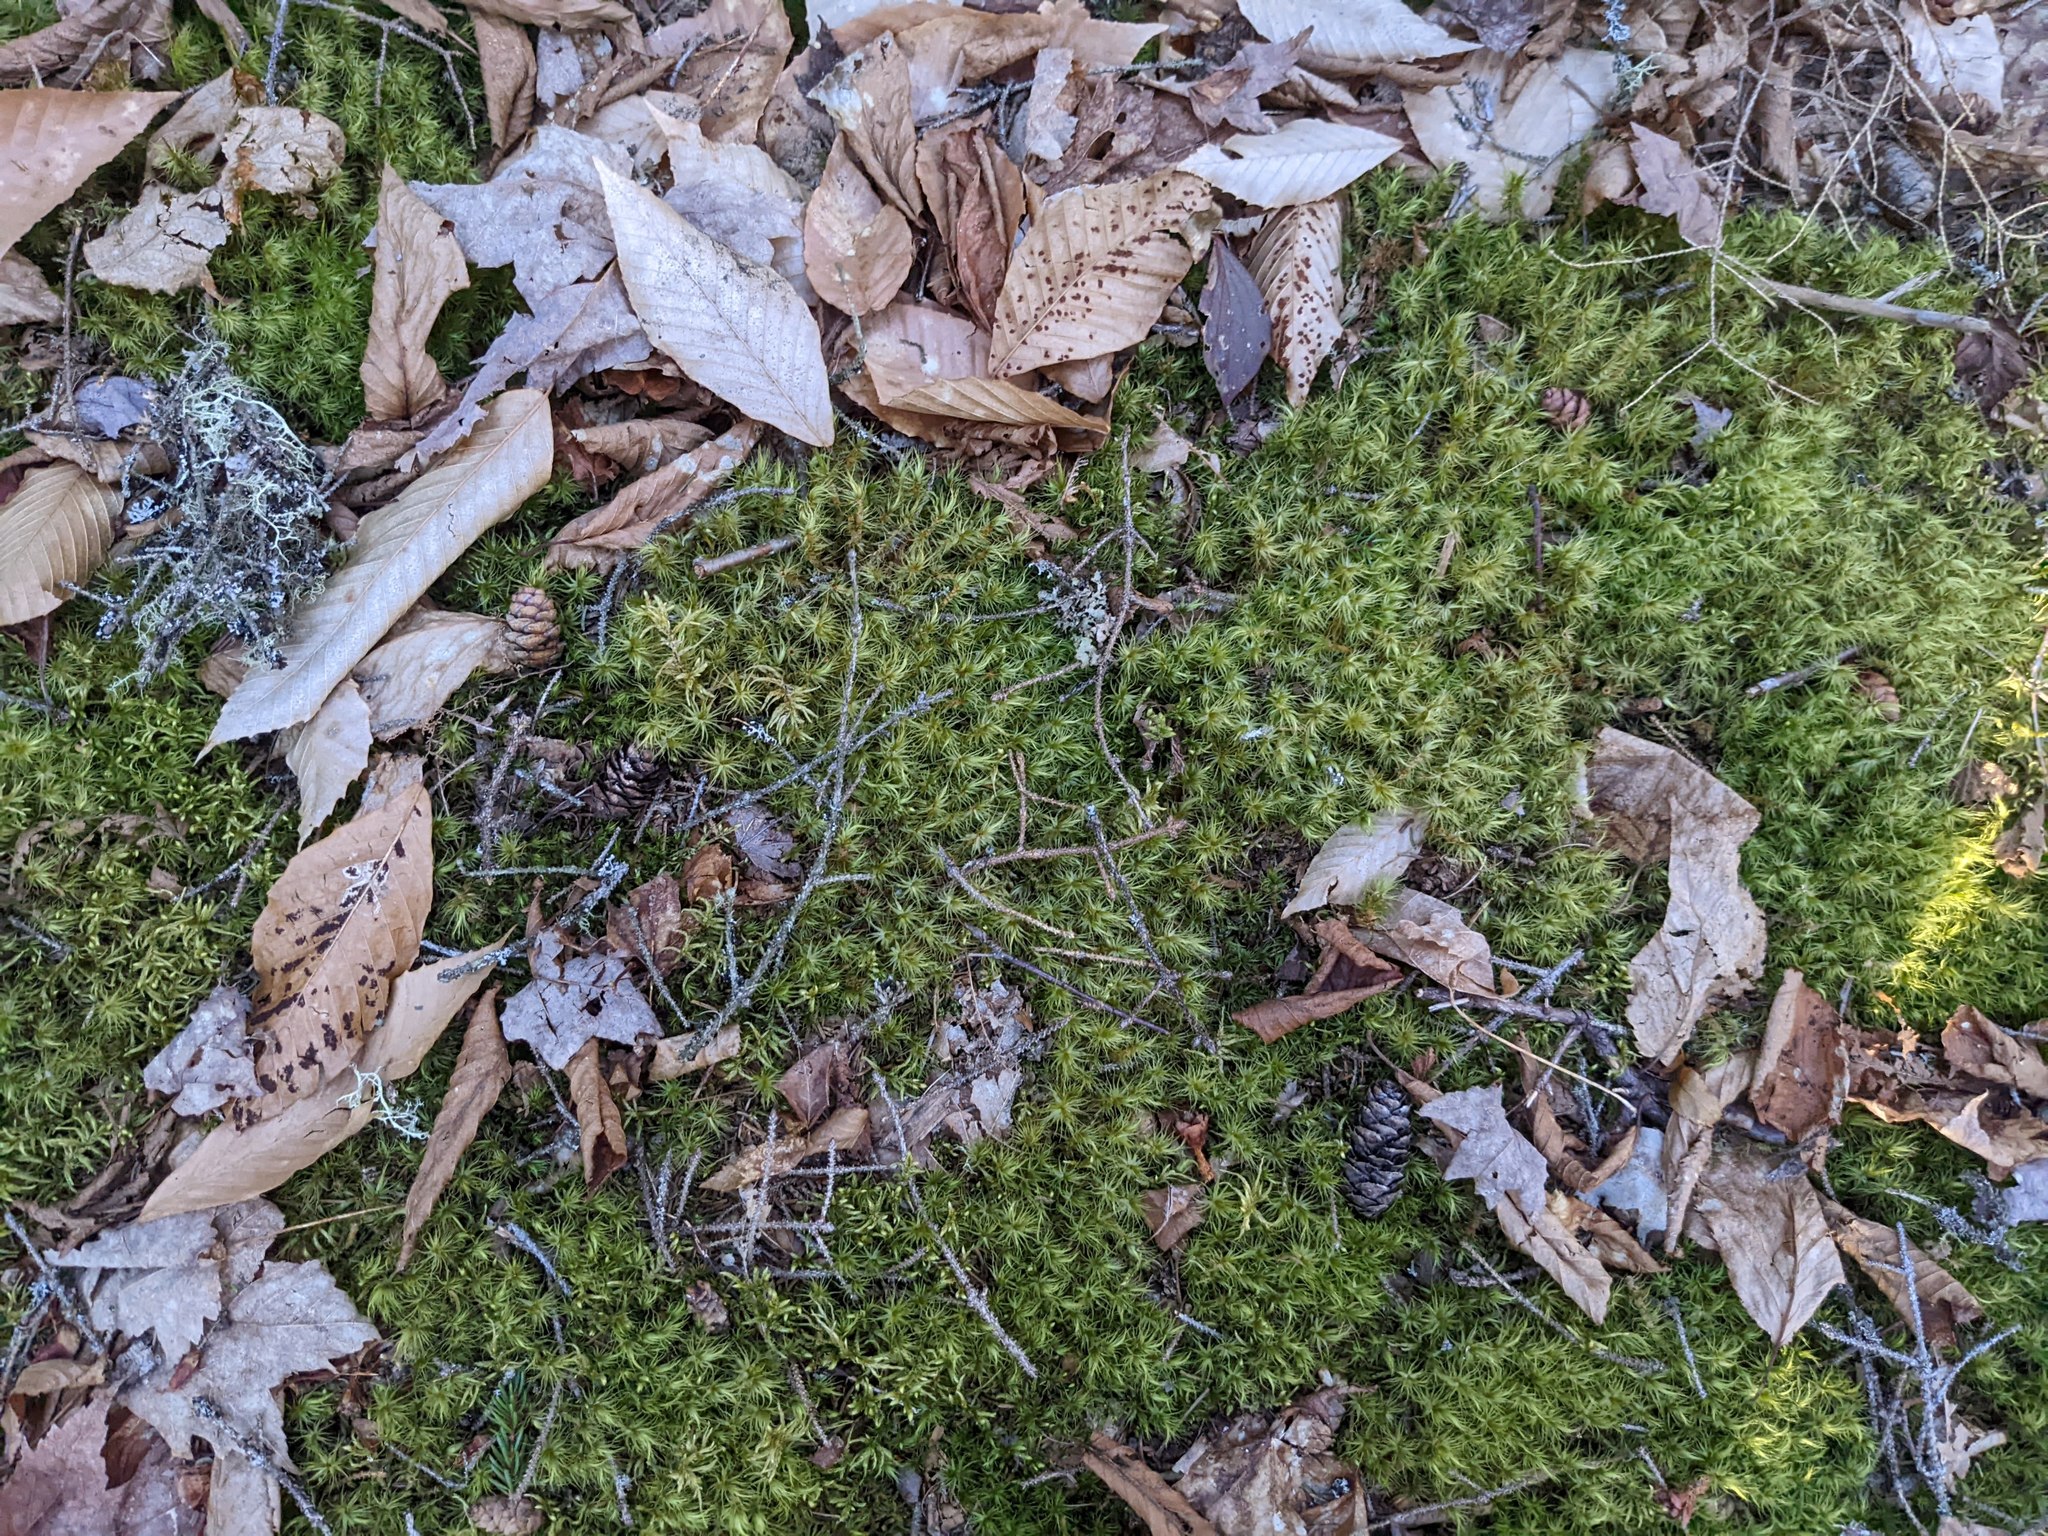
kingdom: Plantae
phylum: Tracheophyta
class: Magnoliopsida
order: Fagales
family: Fagaceae
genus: Fagus
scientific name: Fagus grandifolia
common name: American beech
